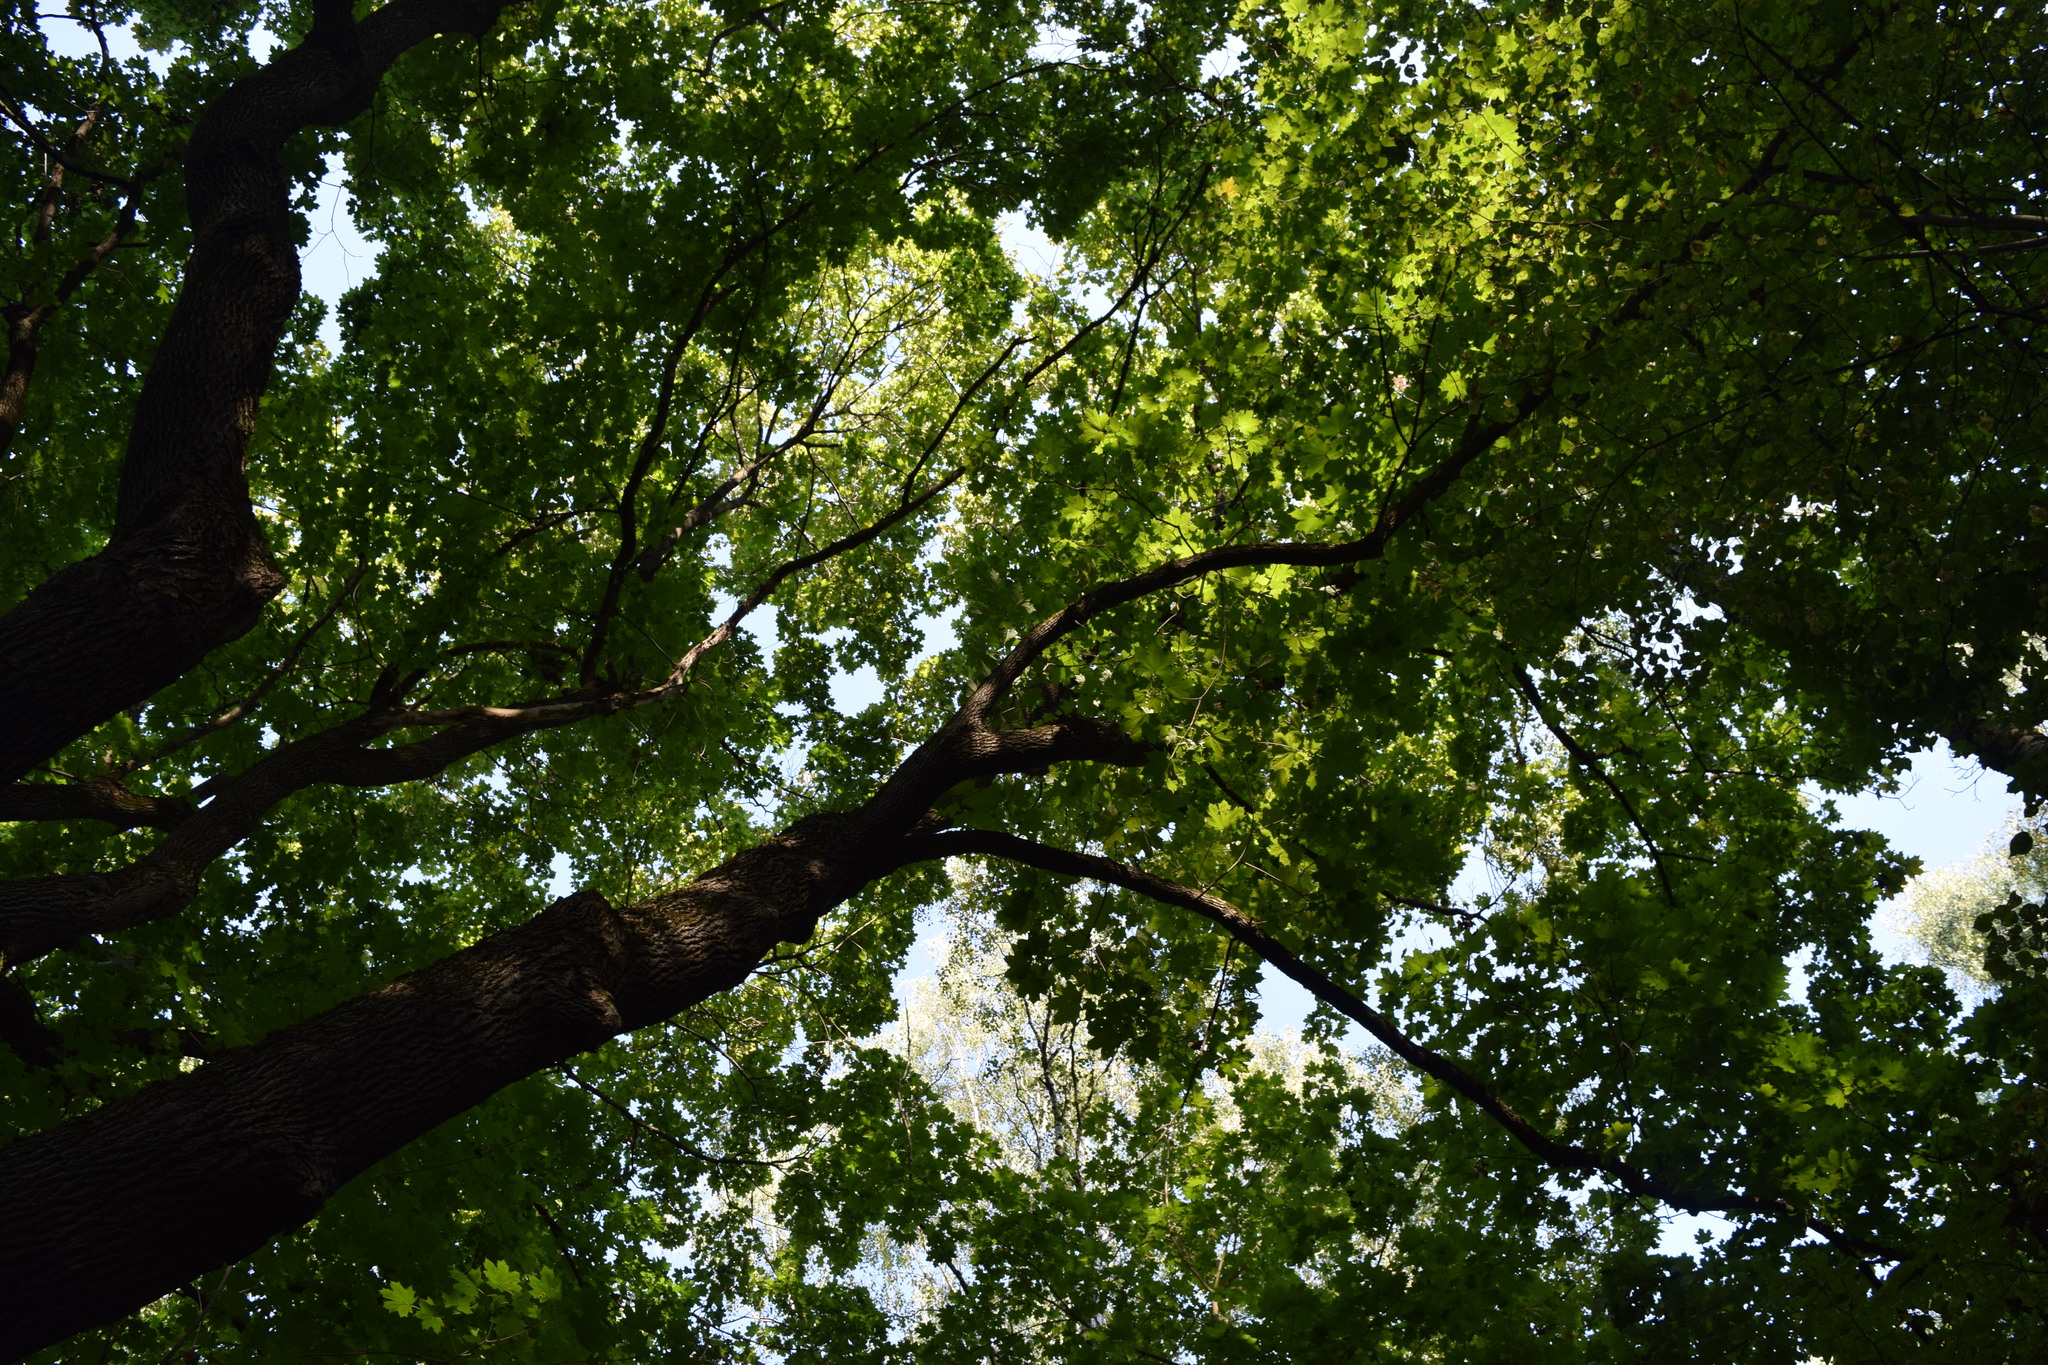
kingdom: Plantae
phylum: Tracheophyta
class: Magnoliopsida
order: Sapindales
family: Sapindaceae
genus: Acer
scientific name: Acer platanoides
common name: Norway maple
